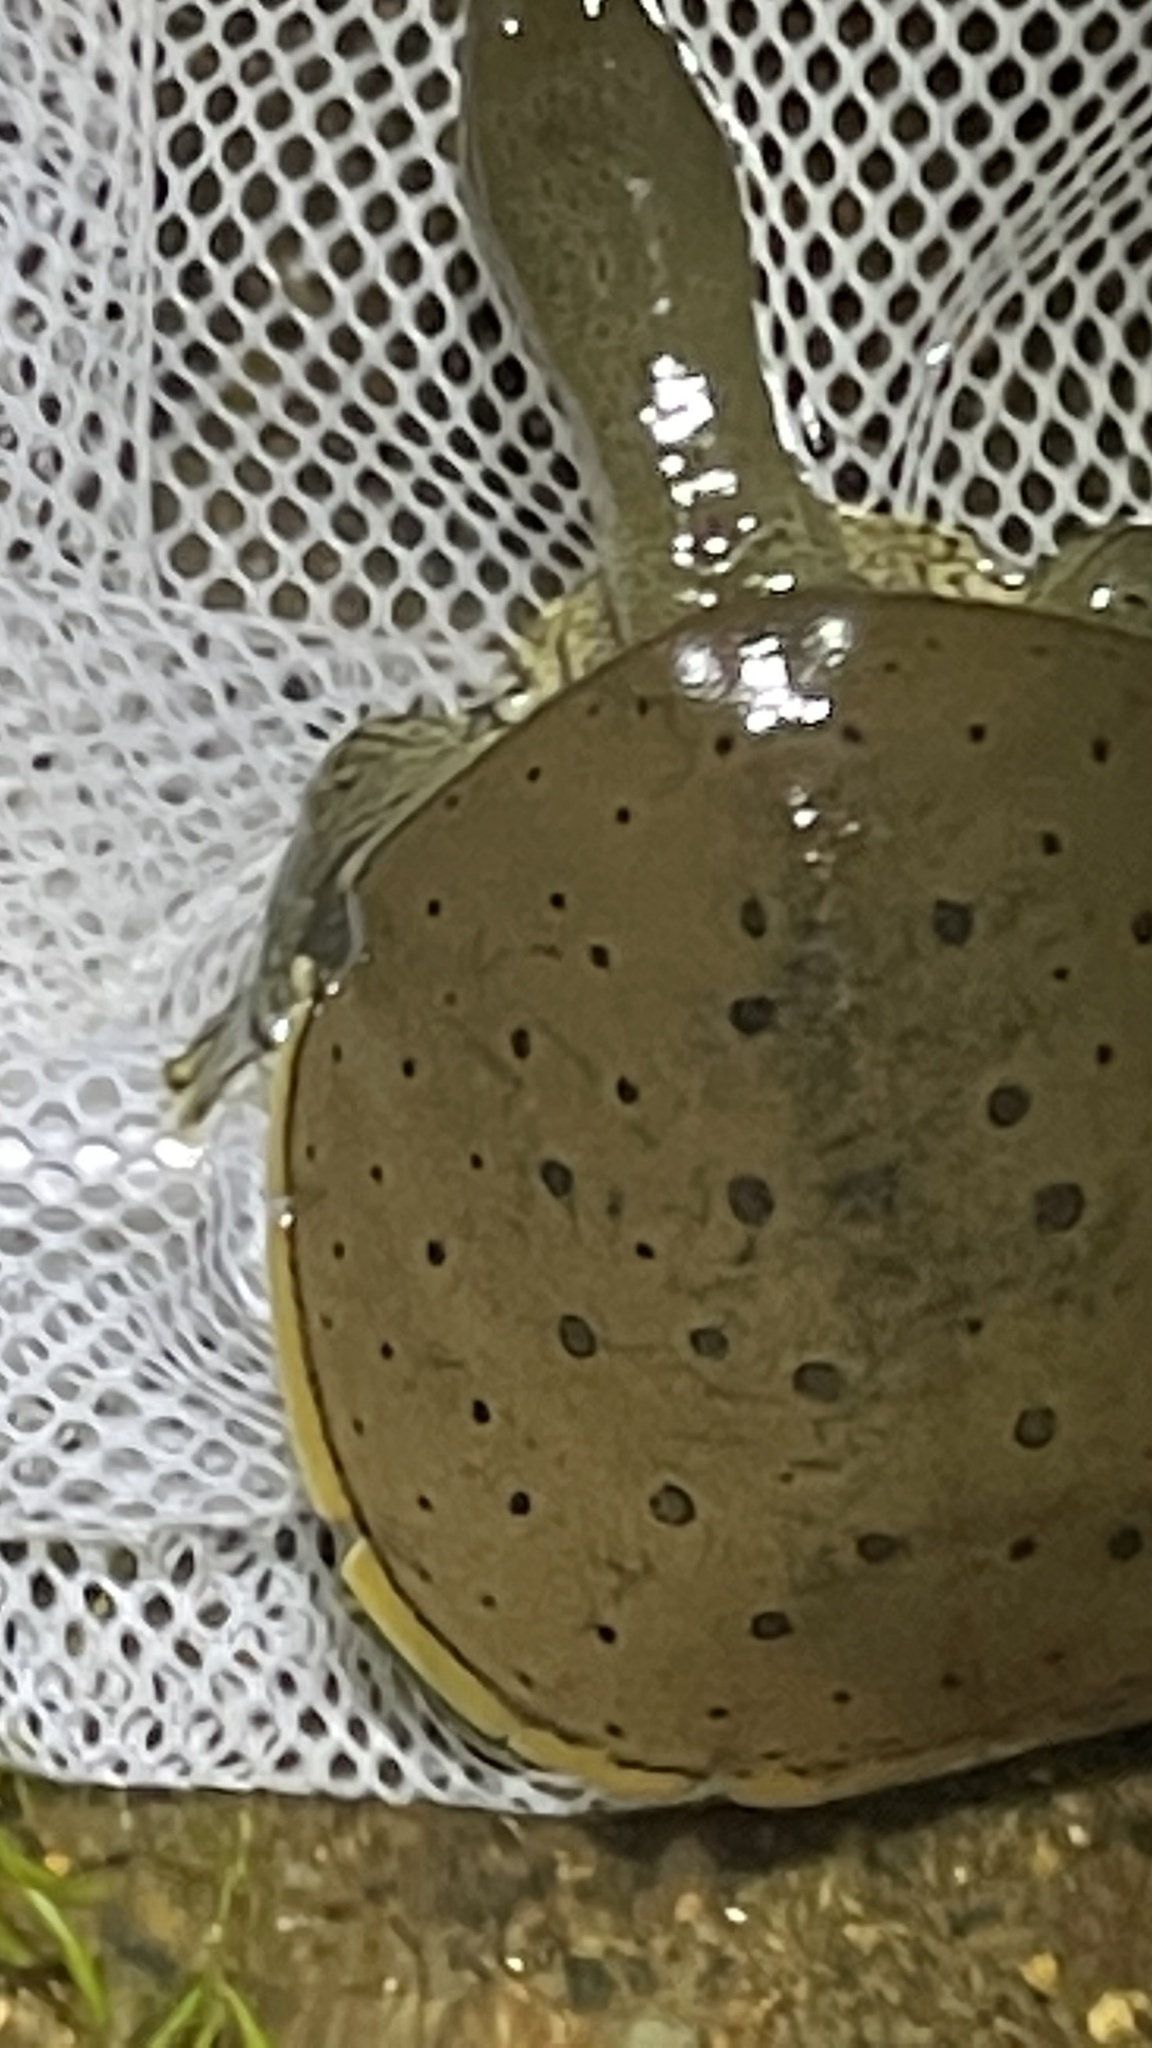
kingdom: Animalia
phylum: Chordata
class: Testudines
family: Trionychidae
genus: Apalone
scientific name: Apalone spinifera
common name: Spiny softshell turtle
